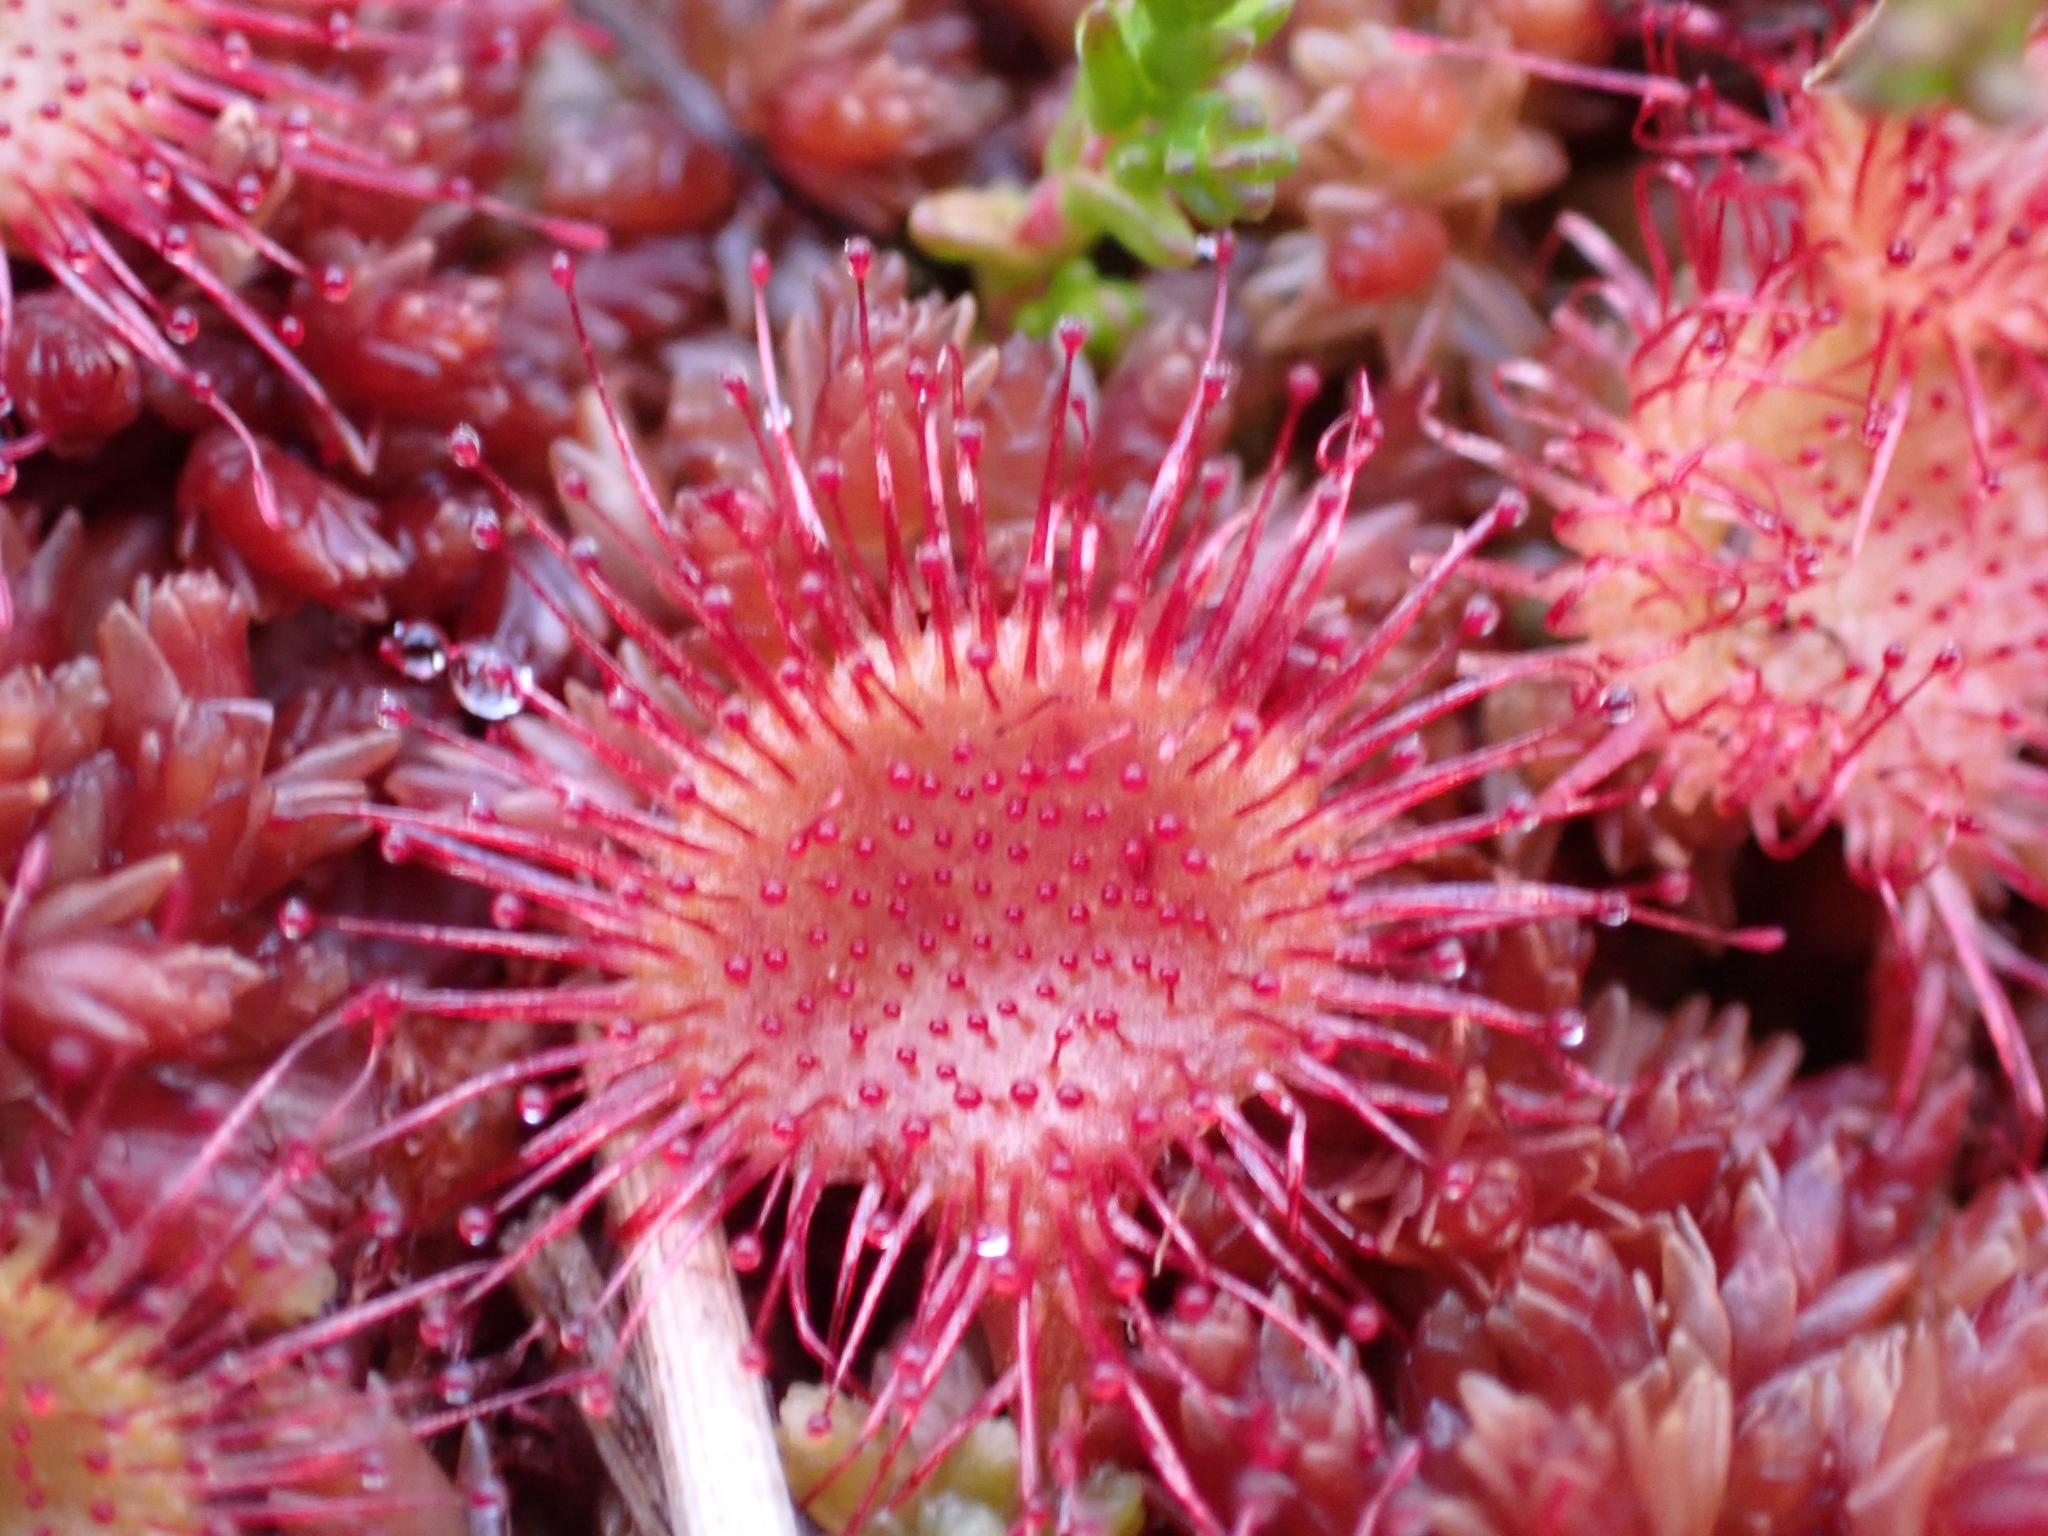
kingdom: Plantae
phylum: Tracheophyta
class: Magnoliopsida
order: Caryophyllales
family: Droseraceae
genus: Drosera
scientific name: Drosera rotundifolia
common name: Round-leaved sundew
